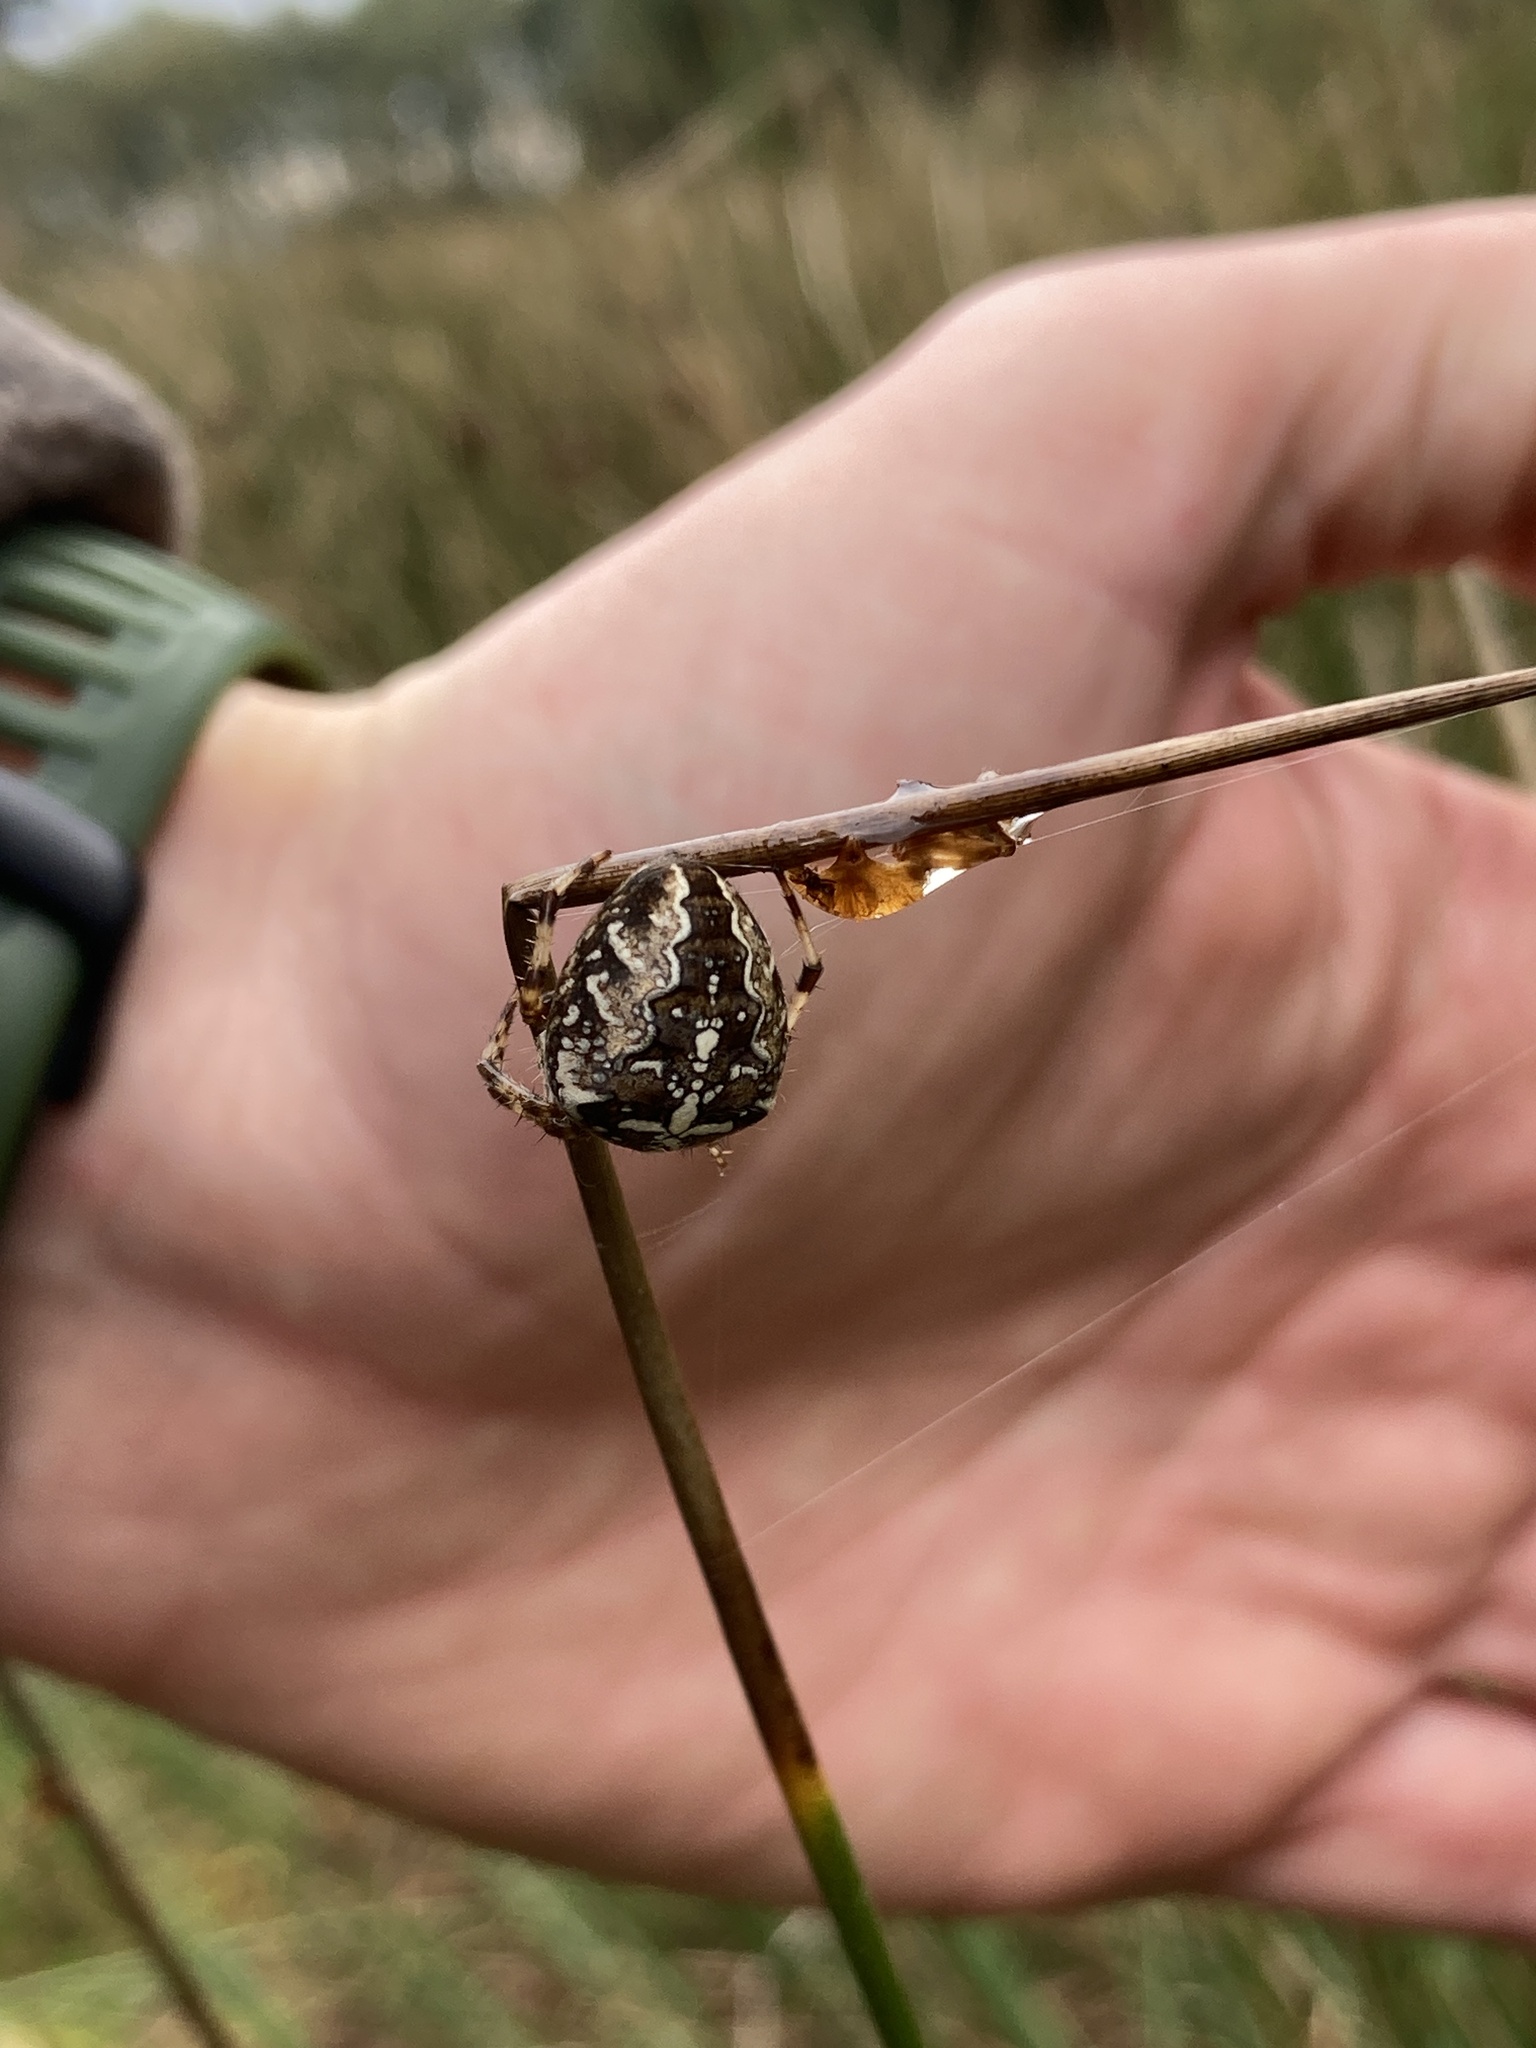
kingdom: Animalia
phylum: Arthropoda
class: Arachnida
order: Araneae
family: Araneidae
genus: Araneus
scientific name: Araneus diadematus
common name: Cross orbweaver
